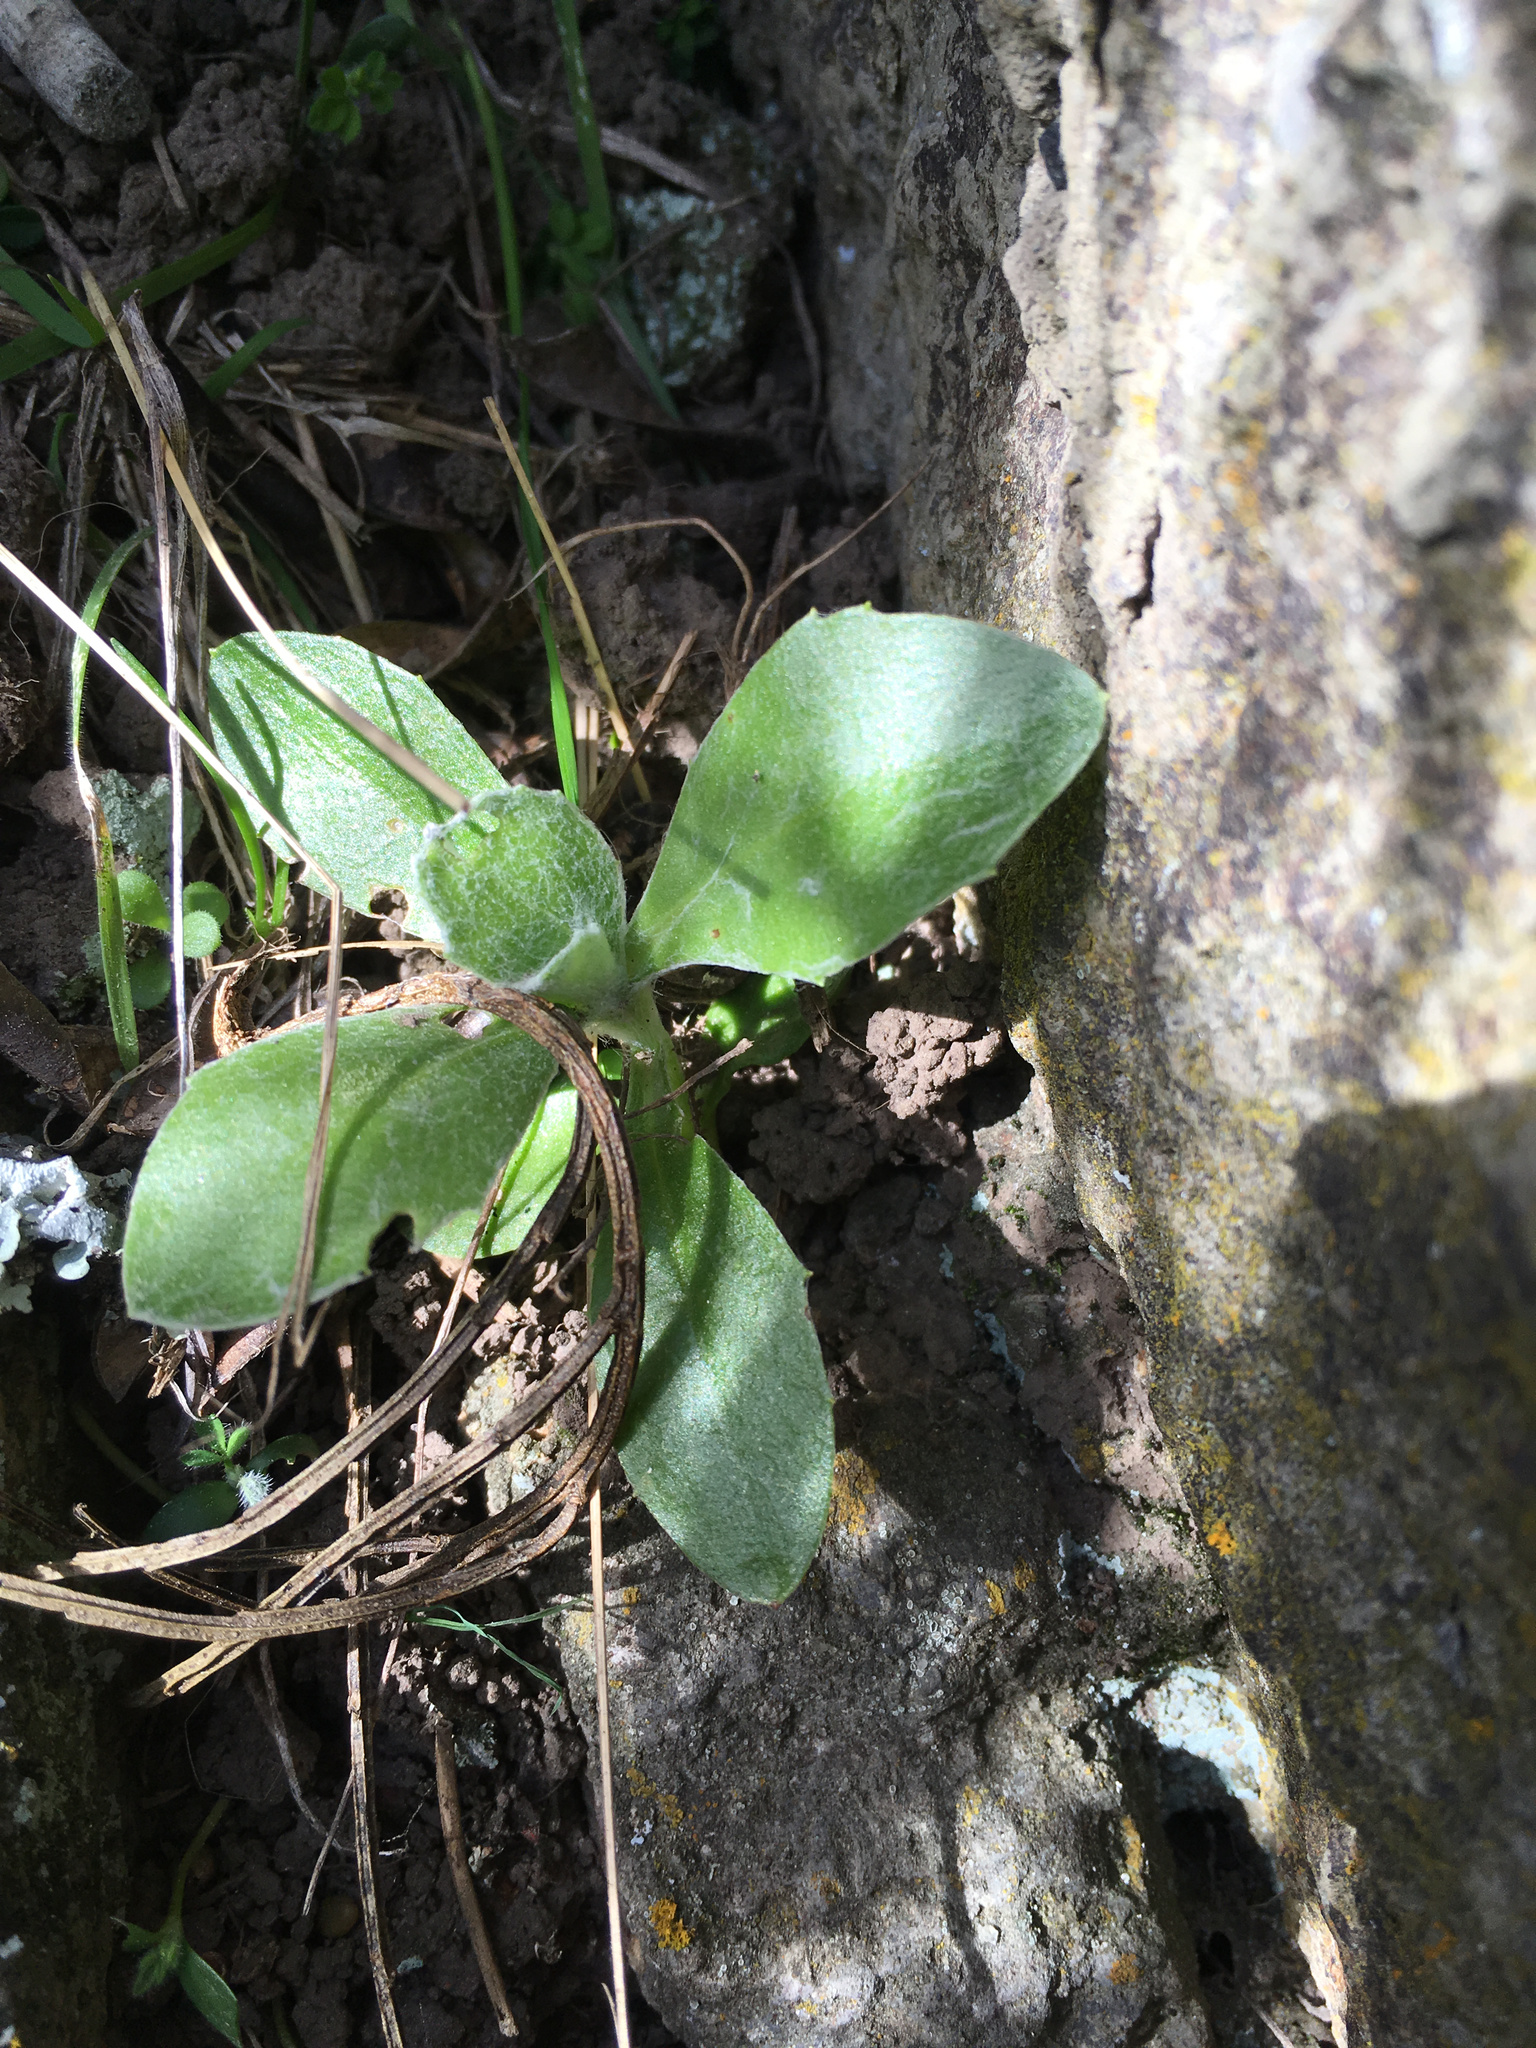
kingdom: Plantae
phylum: Tracheophyta
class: Magnoliopsida
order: Asterales
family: Asteraceae
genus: Osteospermum
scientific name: Osteospermum moniliferum
